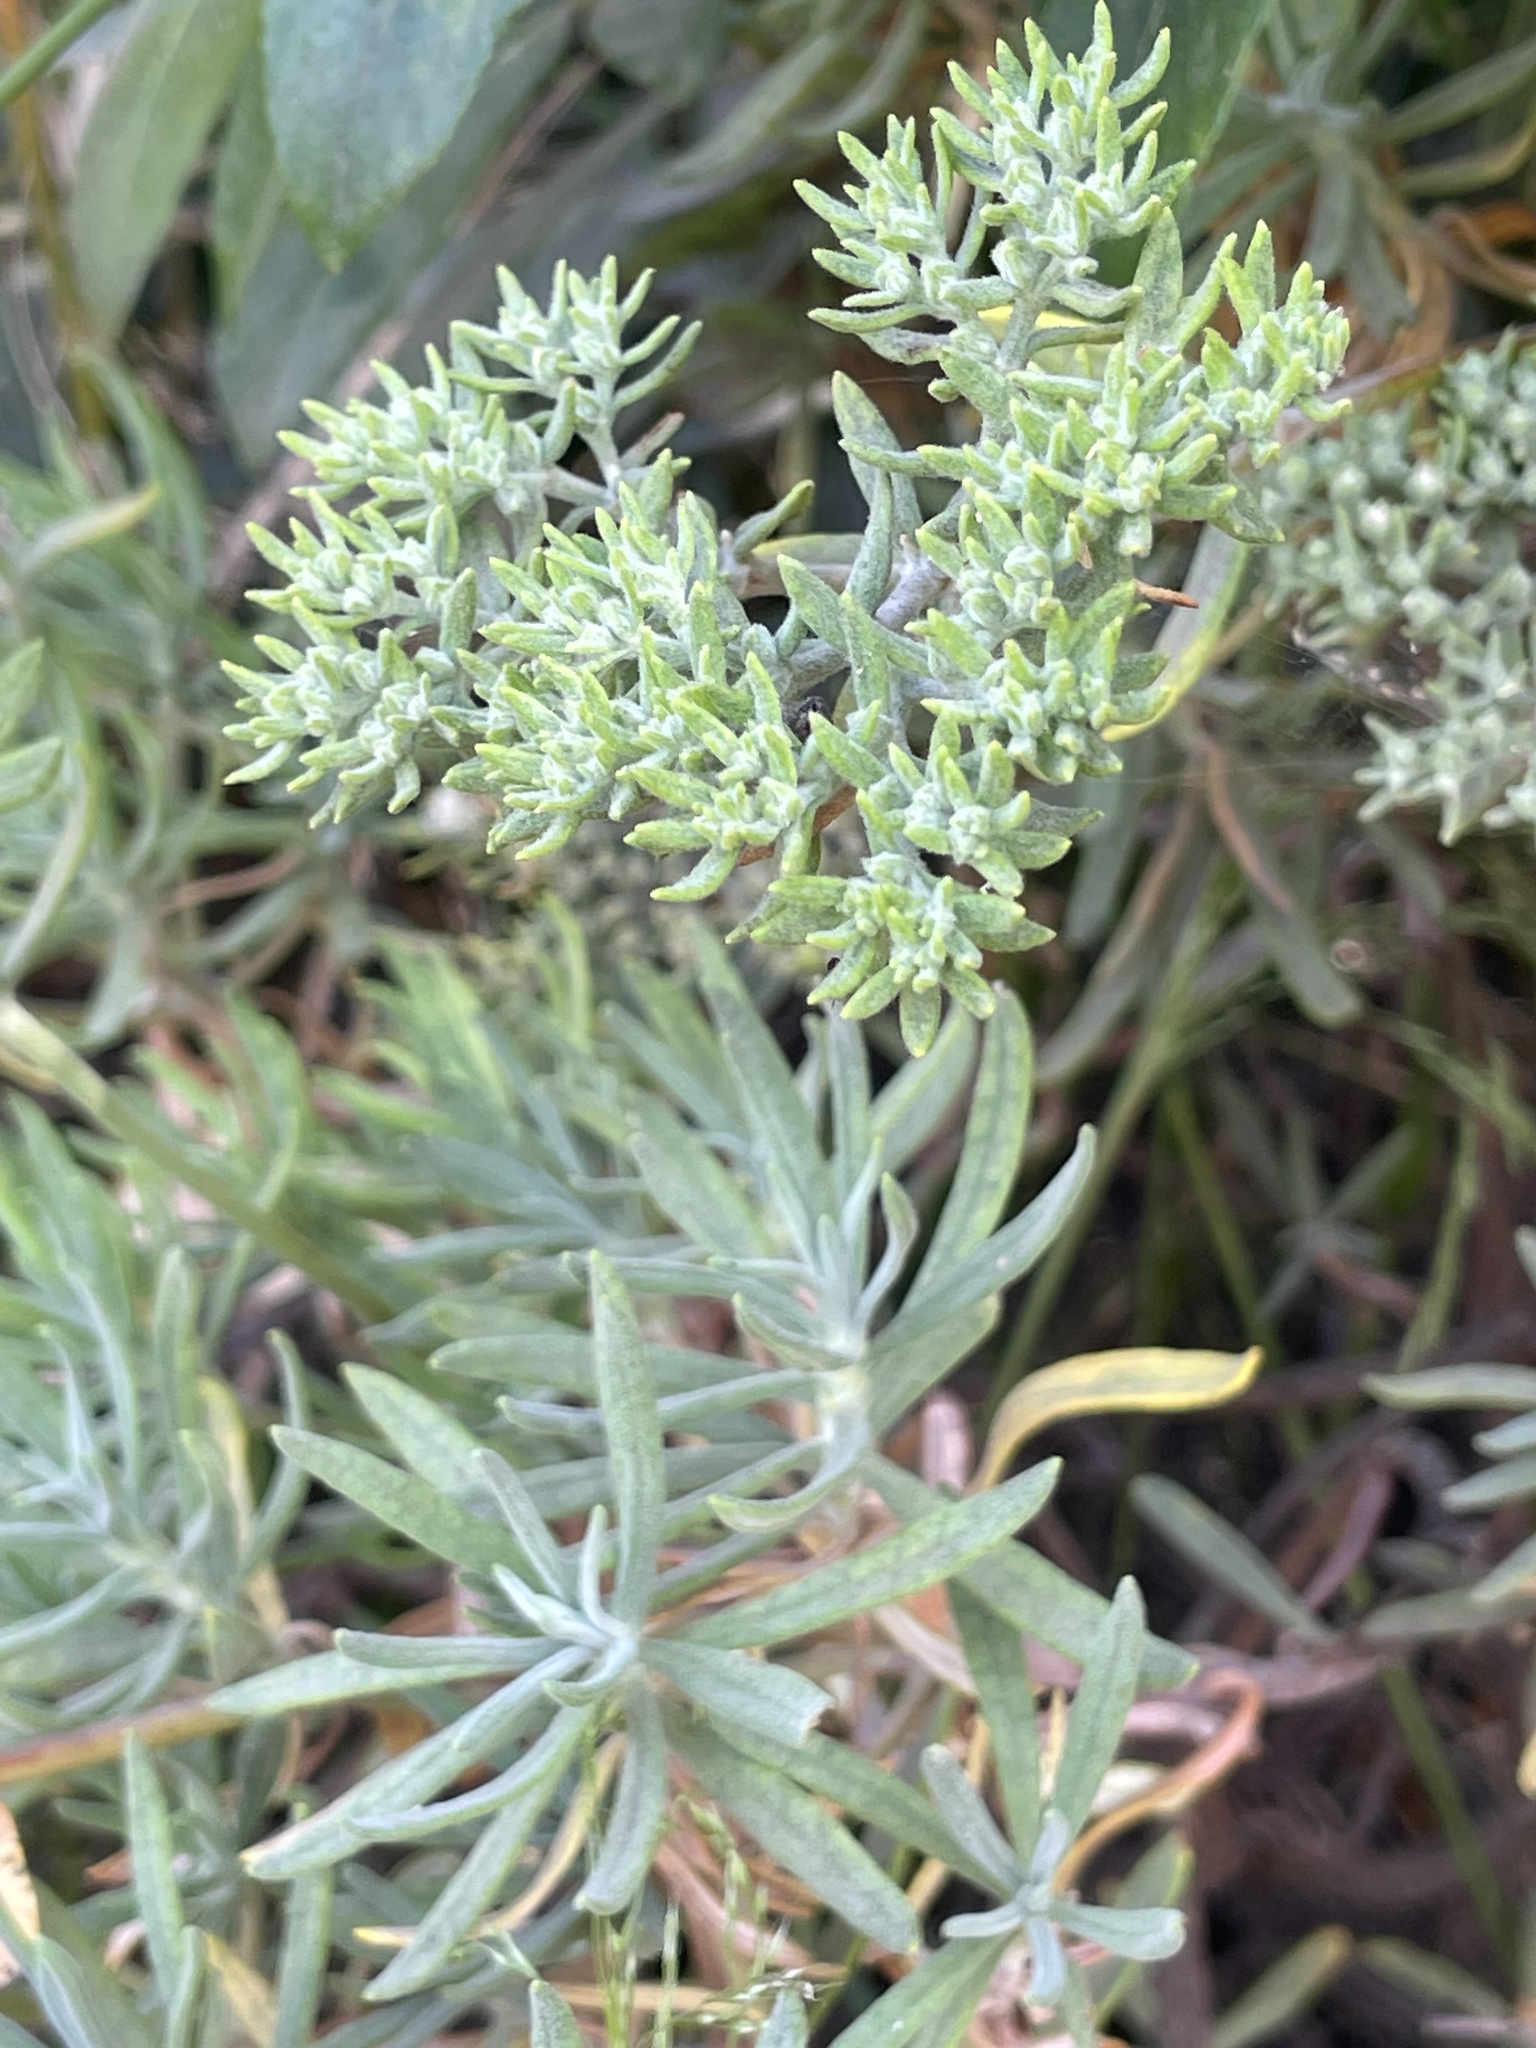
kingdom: Plantae
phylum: Tracheophyta
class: Magnoliopsida
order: Caryophyllales
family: Polygonaceae
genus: Eriogonum
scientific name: Eriogonum arborescens
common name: Island buckwheat
